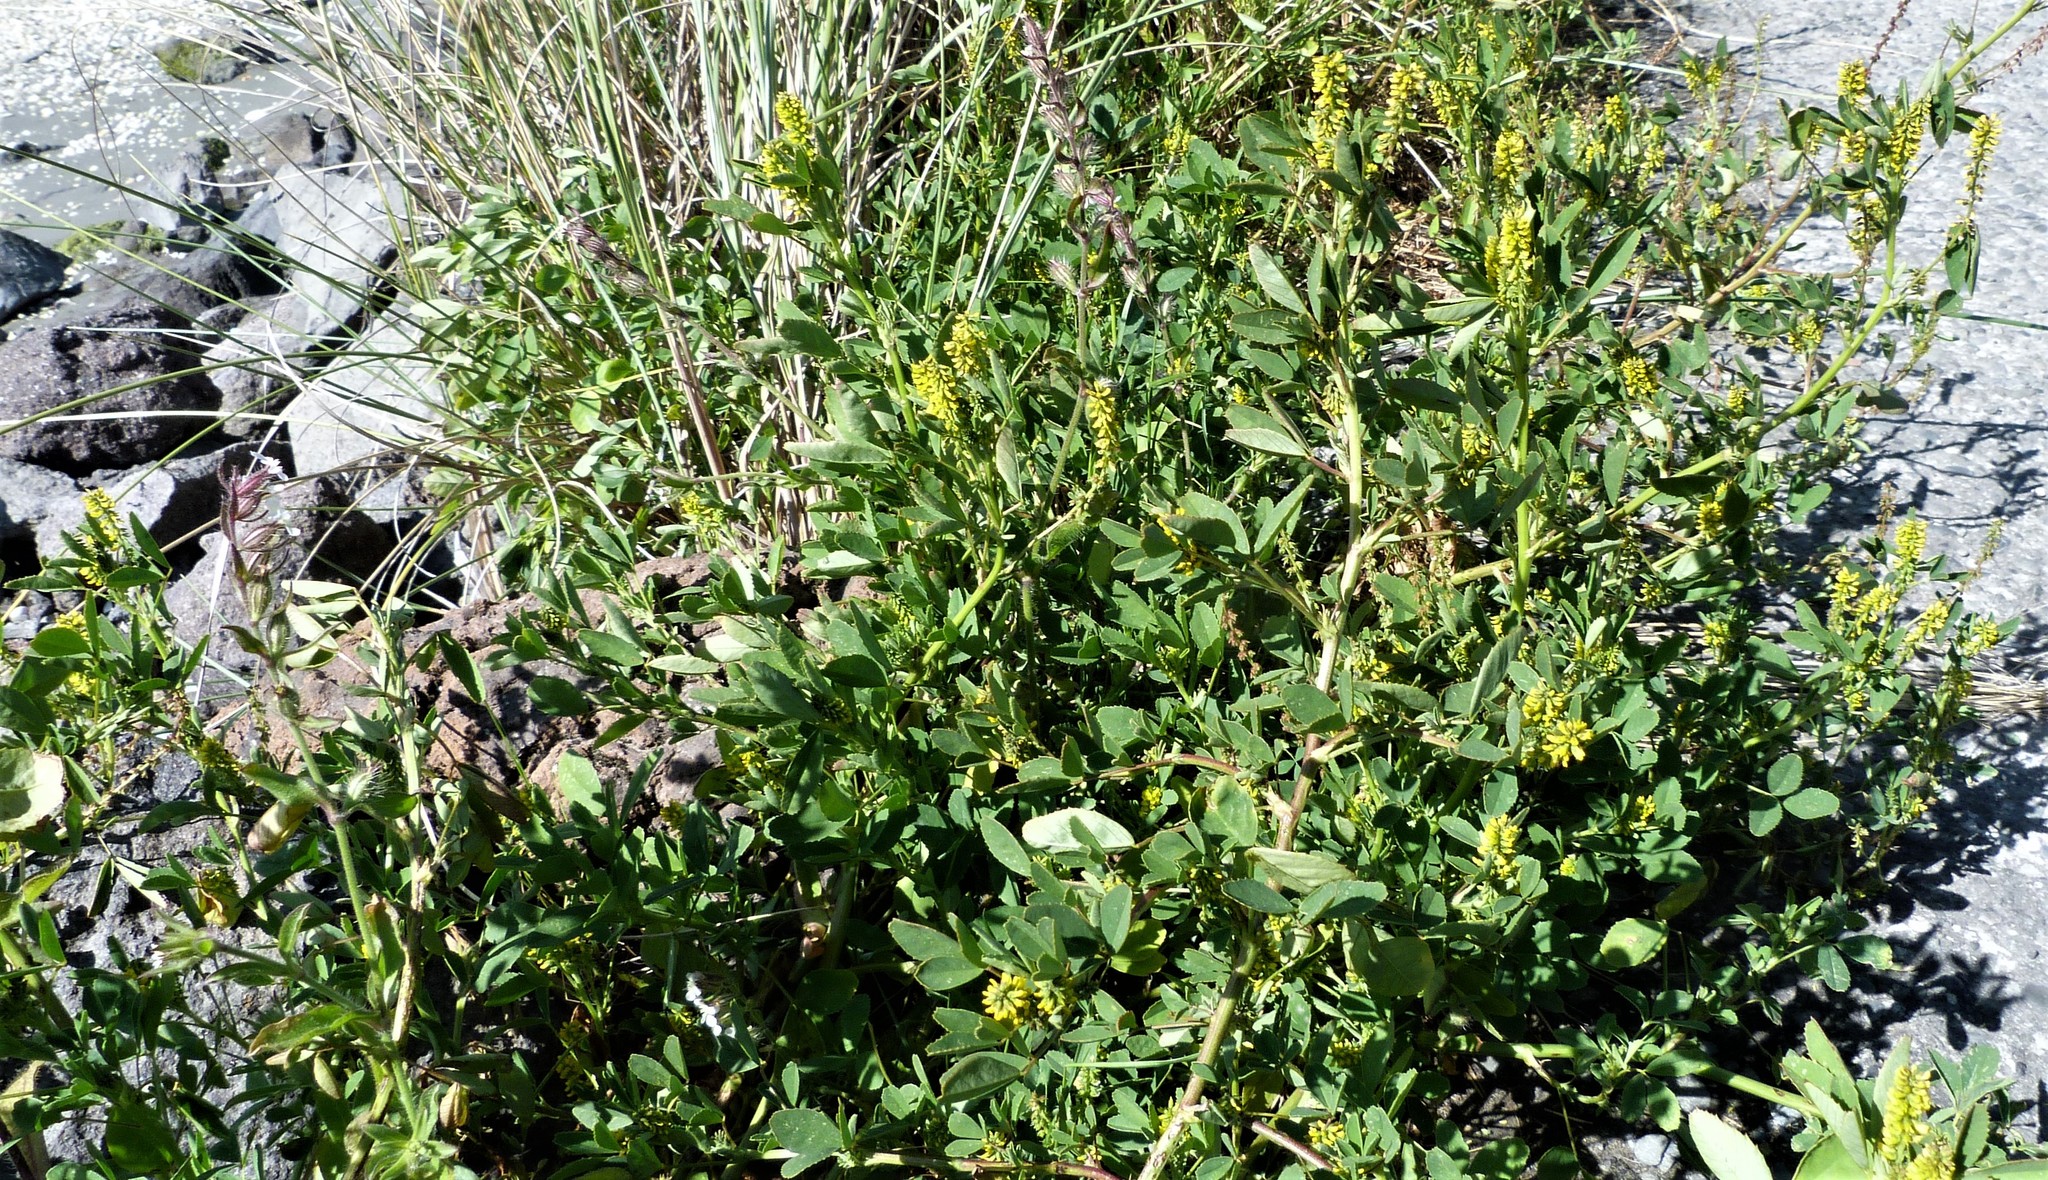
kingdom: Plantae
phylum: Tracheophyta
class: Magnoliopsida
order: Fabales
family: Fabaceae
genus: Melilotus
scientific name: Melilotus indicus
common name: Small melilot
